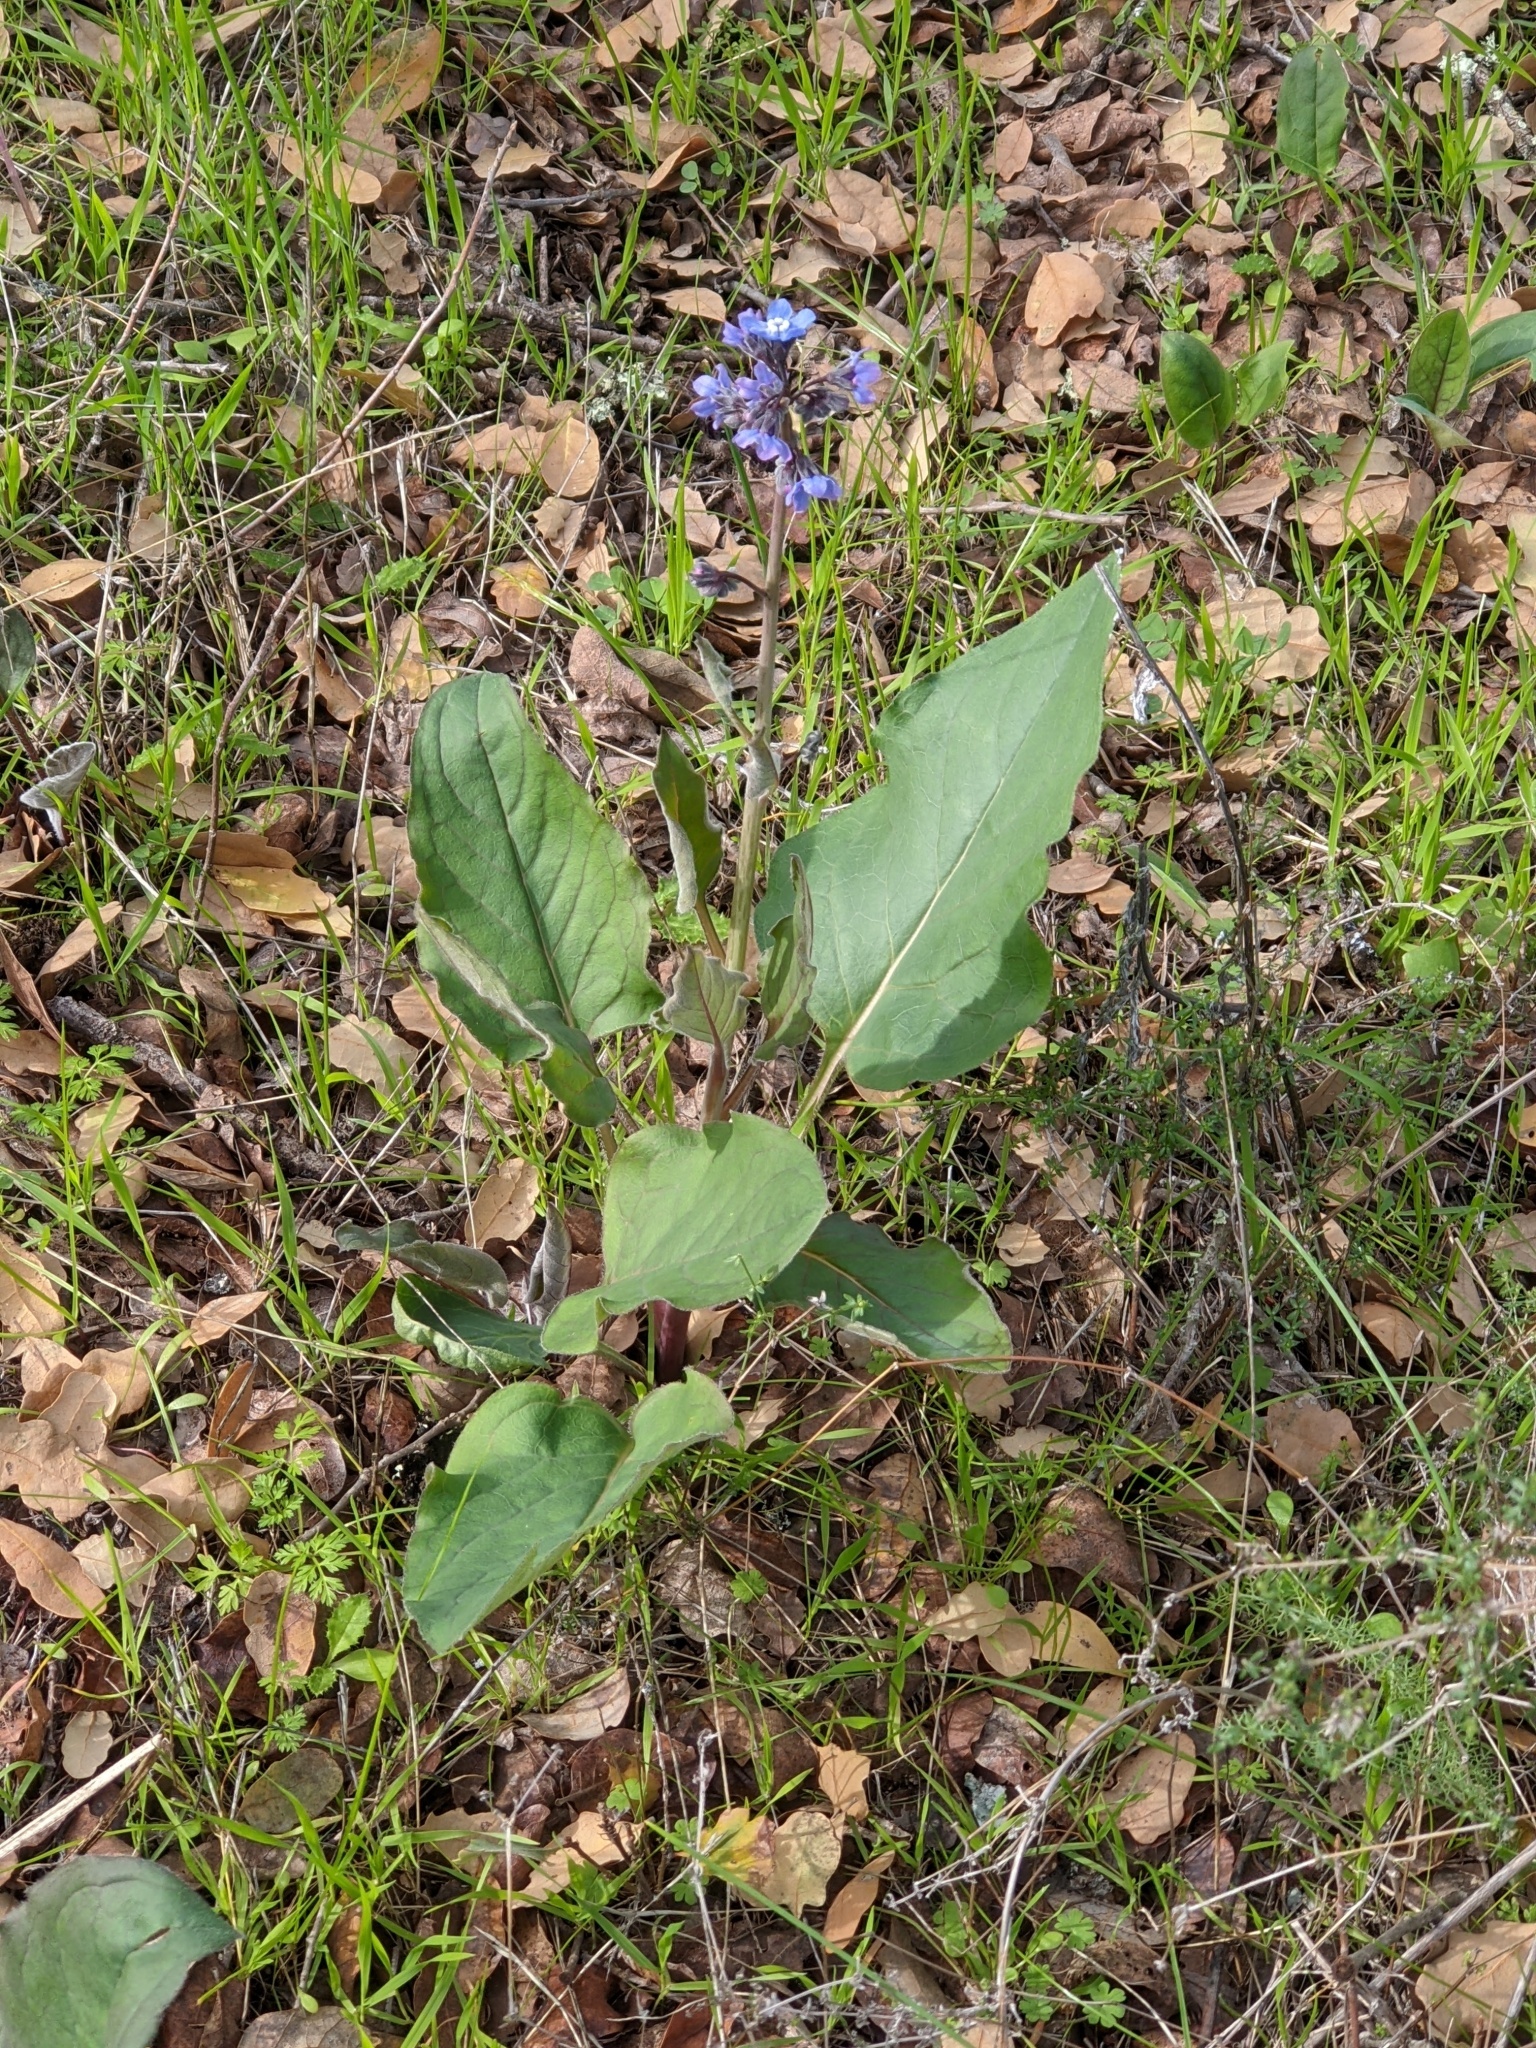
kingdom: Plantae
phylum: Tracheophyta
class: Magnoliopsida
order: Boraginales
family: Boraginaceae
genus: Adelinia
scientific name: Adelinia grande
